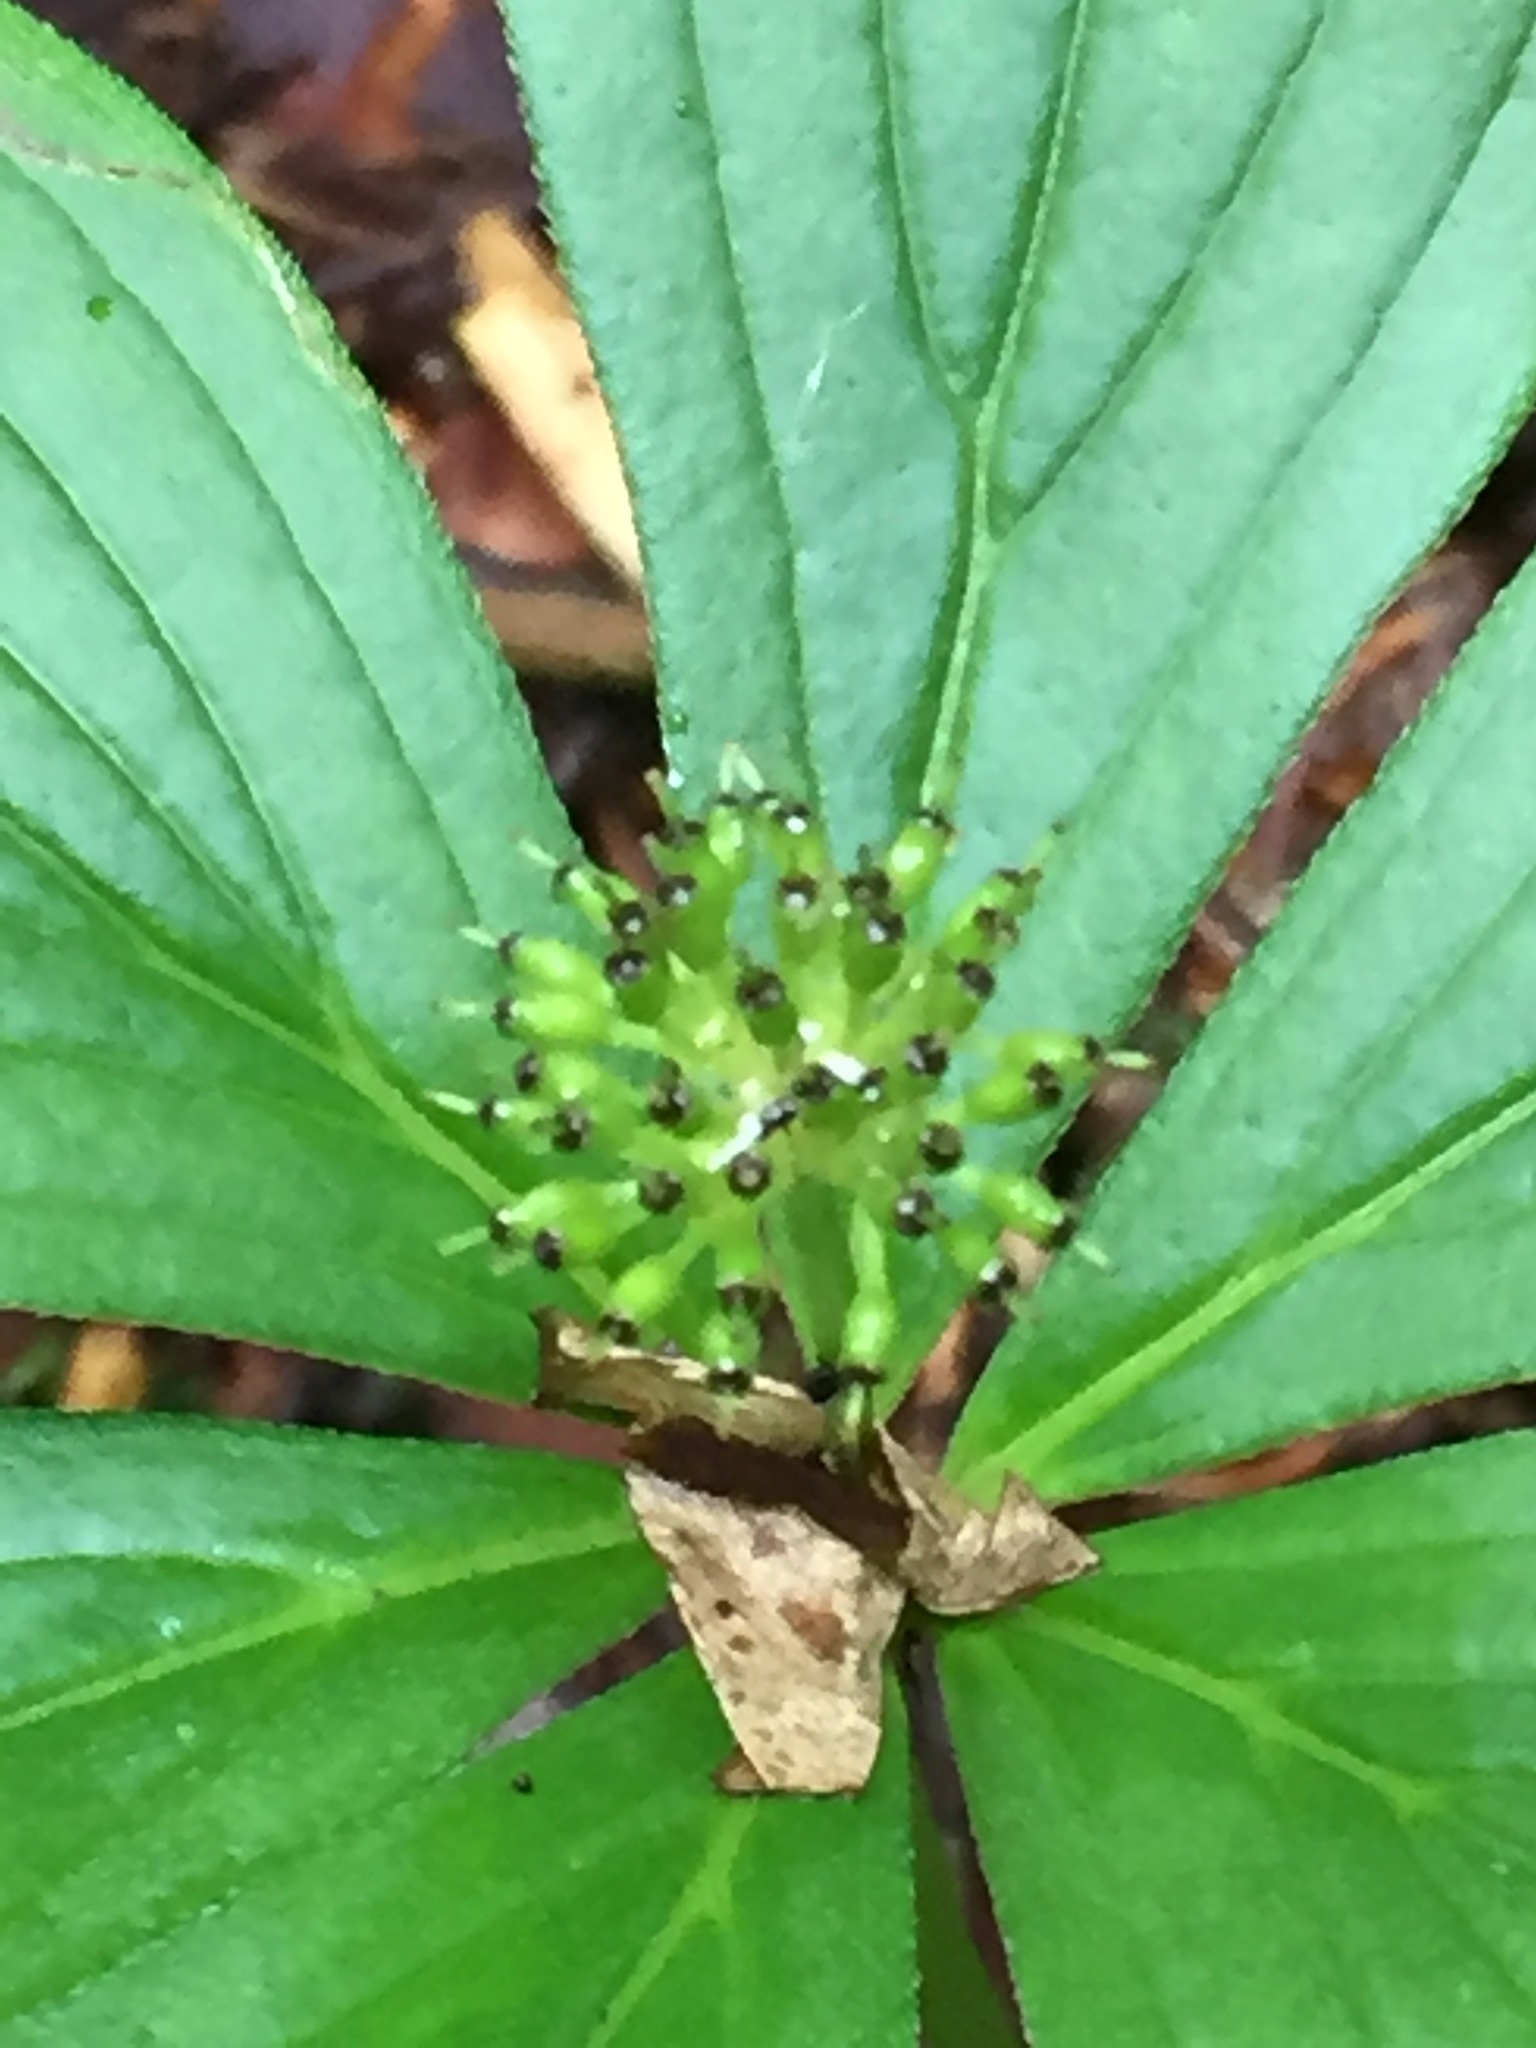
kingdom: Plantae
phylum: Tracheophyta
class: Magnoliopsida
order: Cornales
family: Cornaceae
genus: Cornus
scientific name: Cornus canadensis
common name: Creeping dogwood
